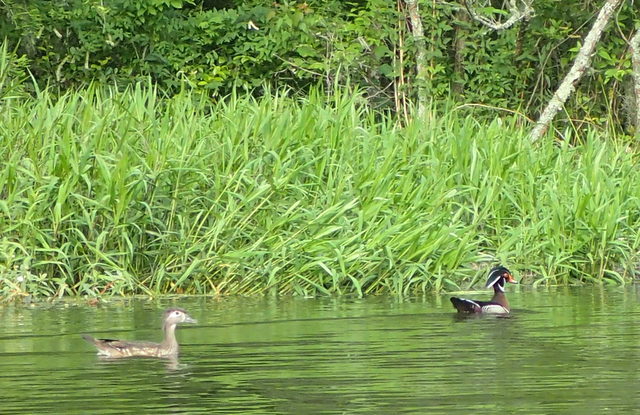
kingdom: Animalia
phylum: Chordata
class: Aves
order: Anseriformes
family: Anatidae
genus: Aix
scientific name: Aix sponsa
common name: Wood duck
